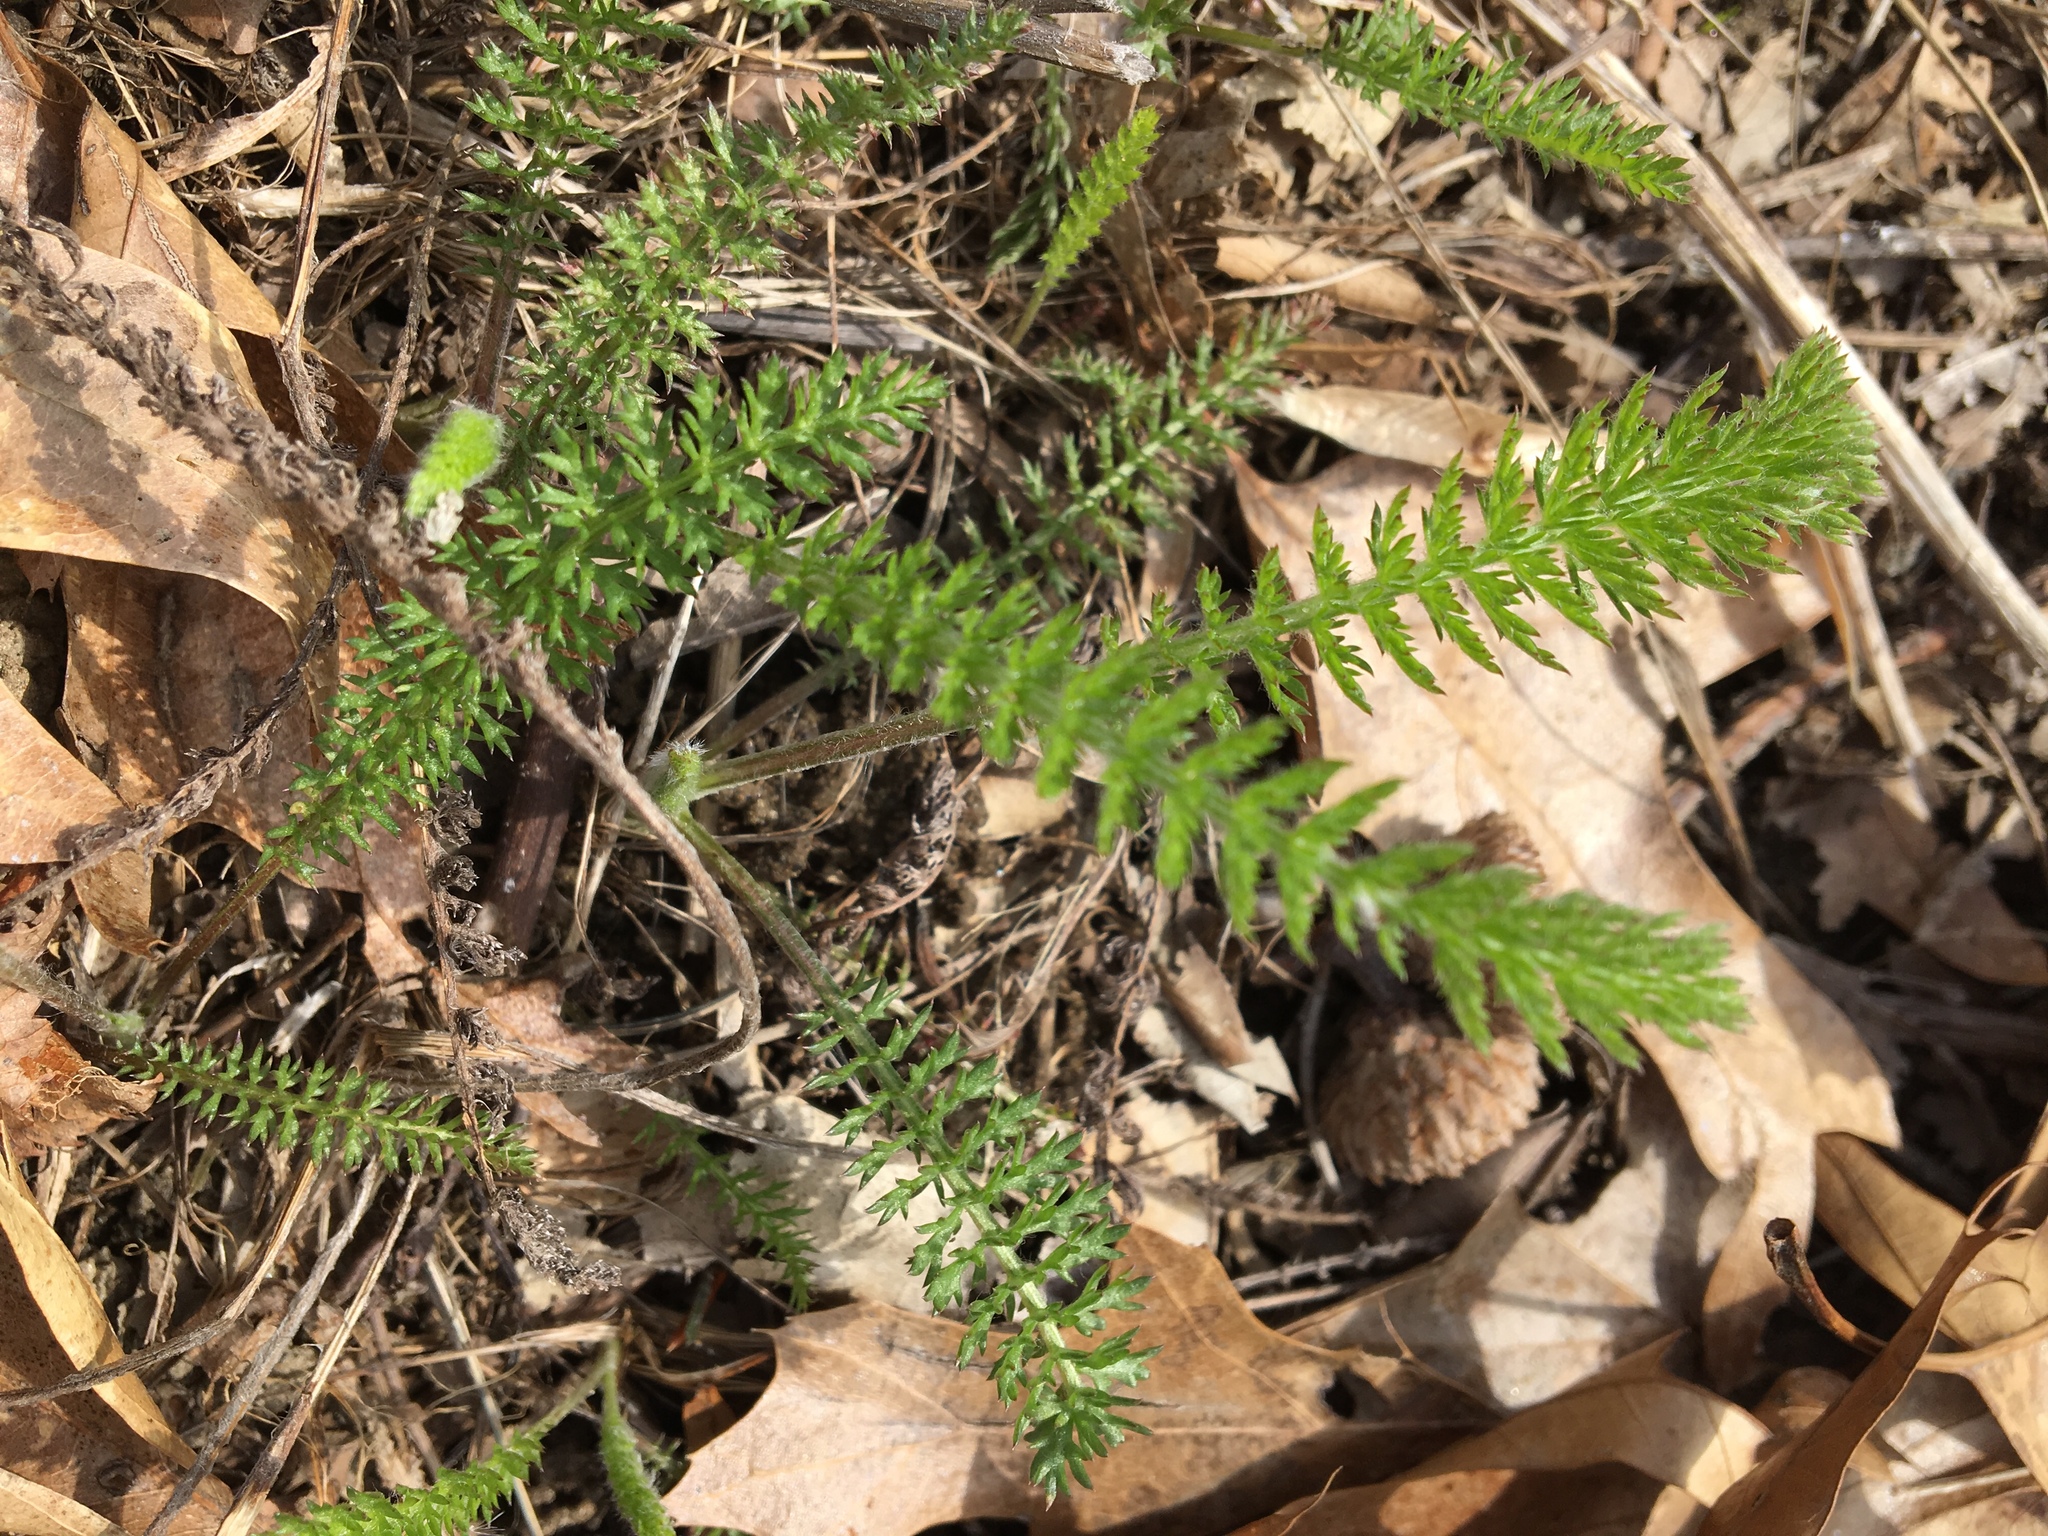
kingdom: Plantae
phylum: Tracheophyta
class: Magnoliopsida
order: Asterales
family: Asteraceae
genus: Achillea
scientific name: Achillea millefolium
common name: Yarrow
